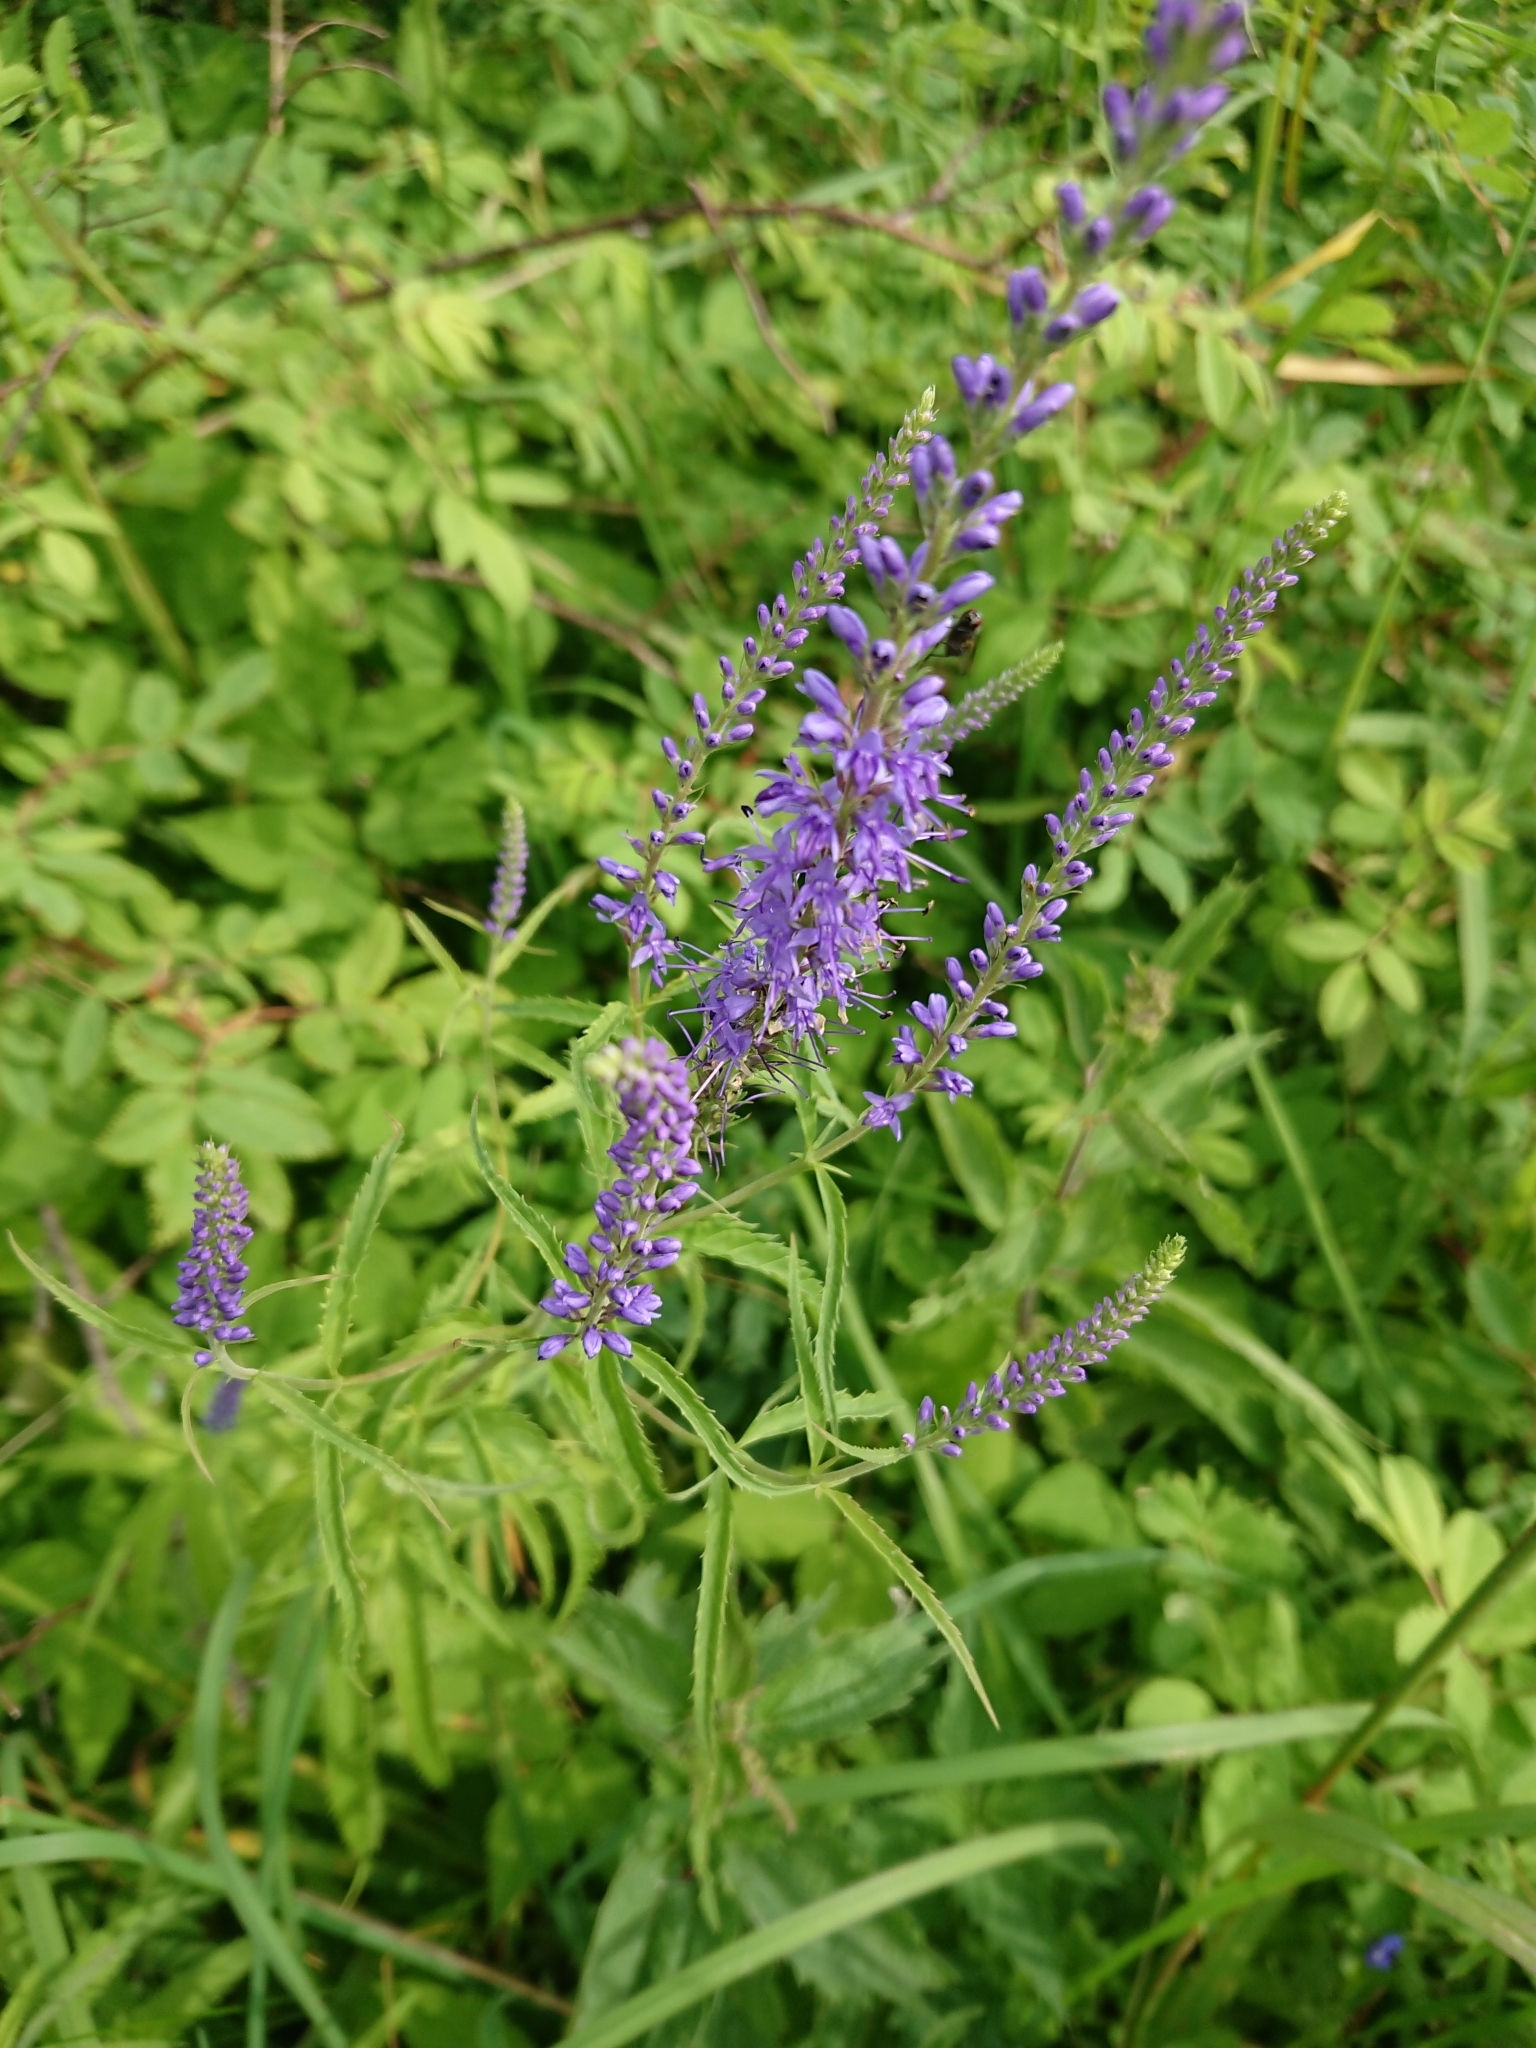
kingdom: Plantae
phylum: Tracheophyta
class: Magnoliopsida
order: Lamiales
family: Plantaginaceae
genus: Veronica
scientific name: Veronica longifolia
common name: Garden speedwell
